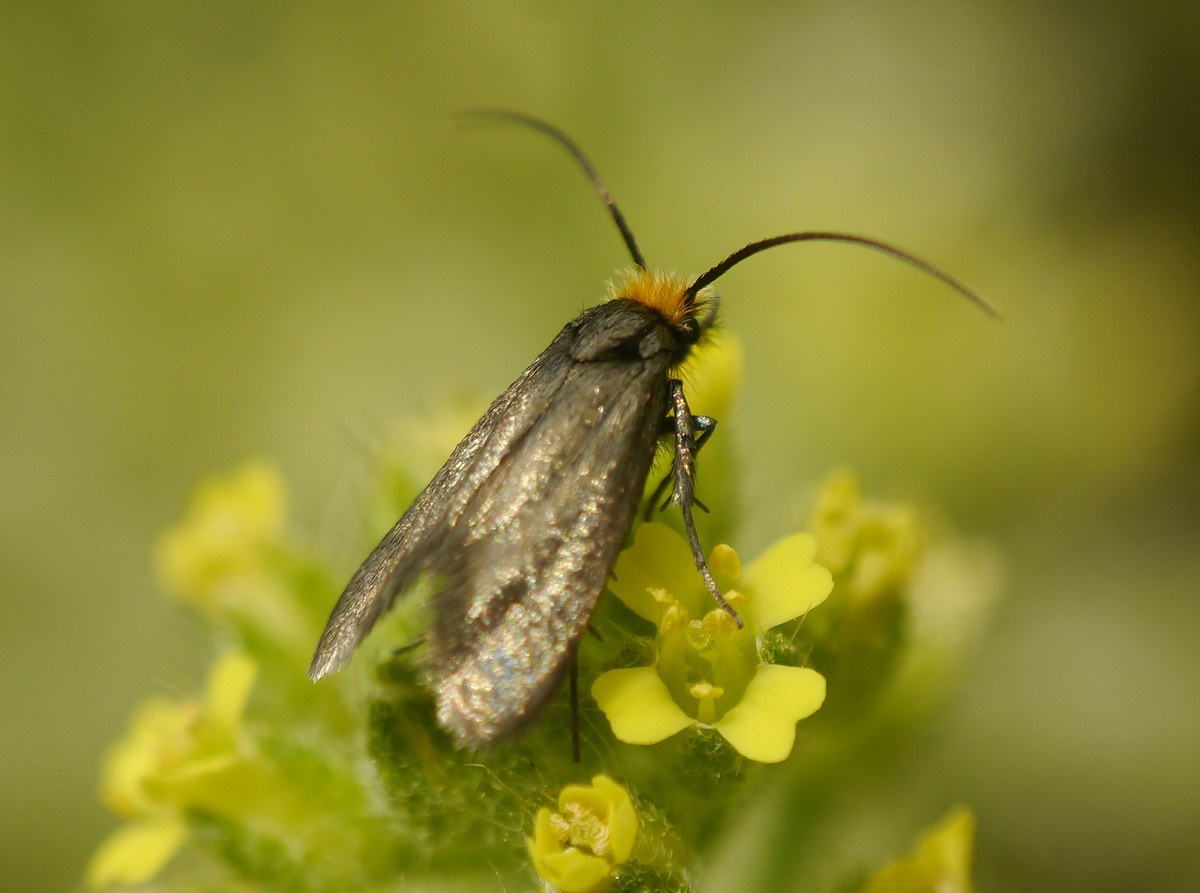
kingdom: Animalia
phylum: Arthropoda
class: Insecta
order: Lepidoptera
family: Adelidae
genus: Cauchas
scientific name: Cauchas rufifrontella
